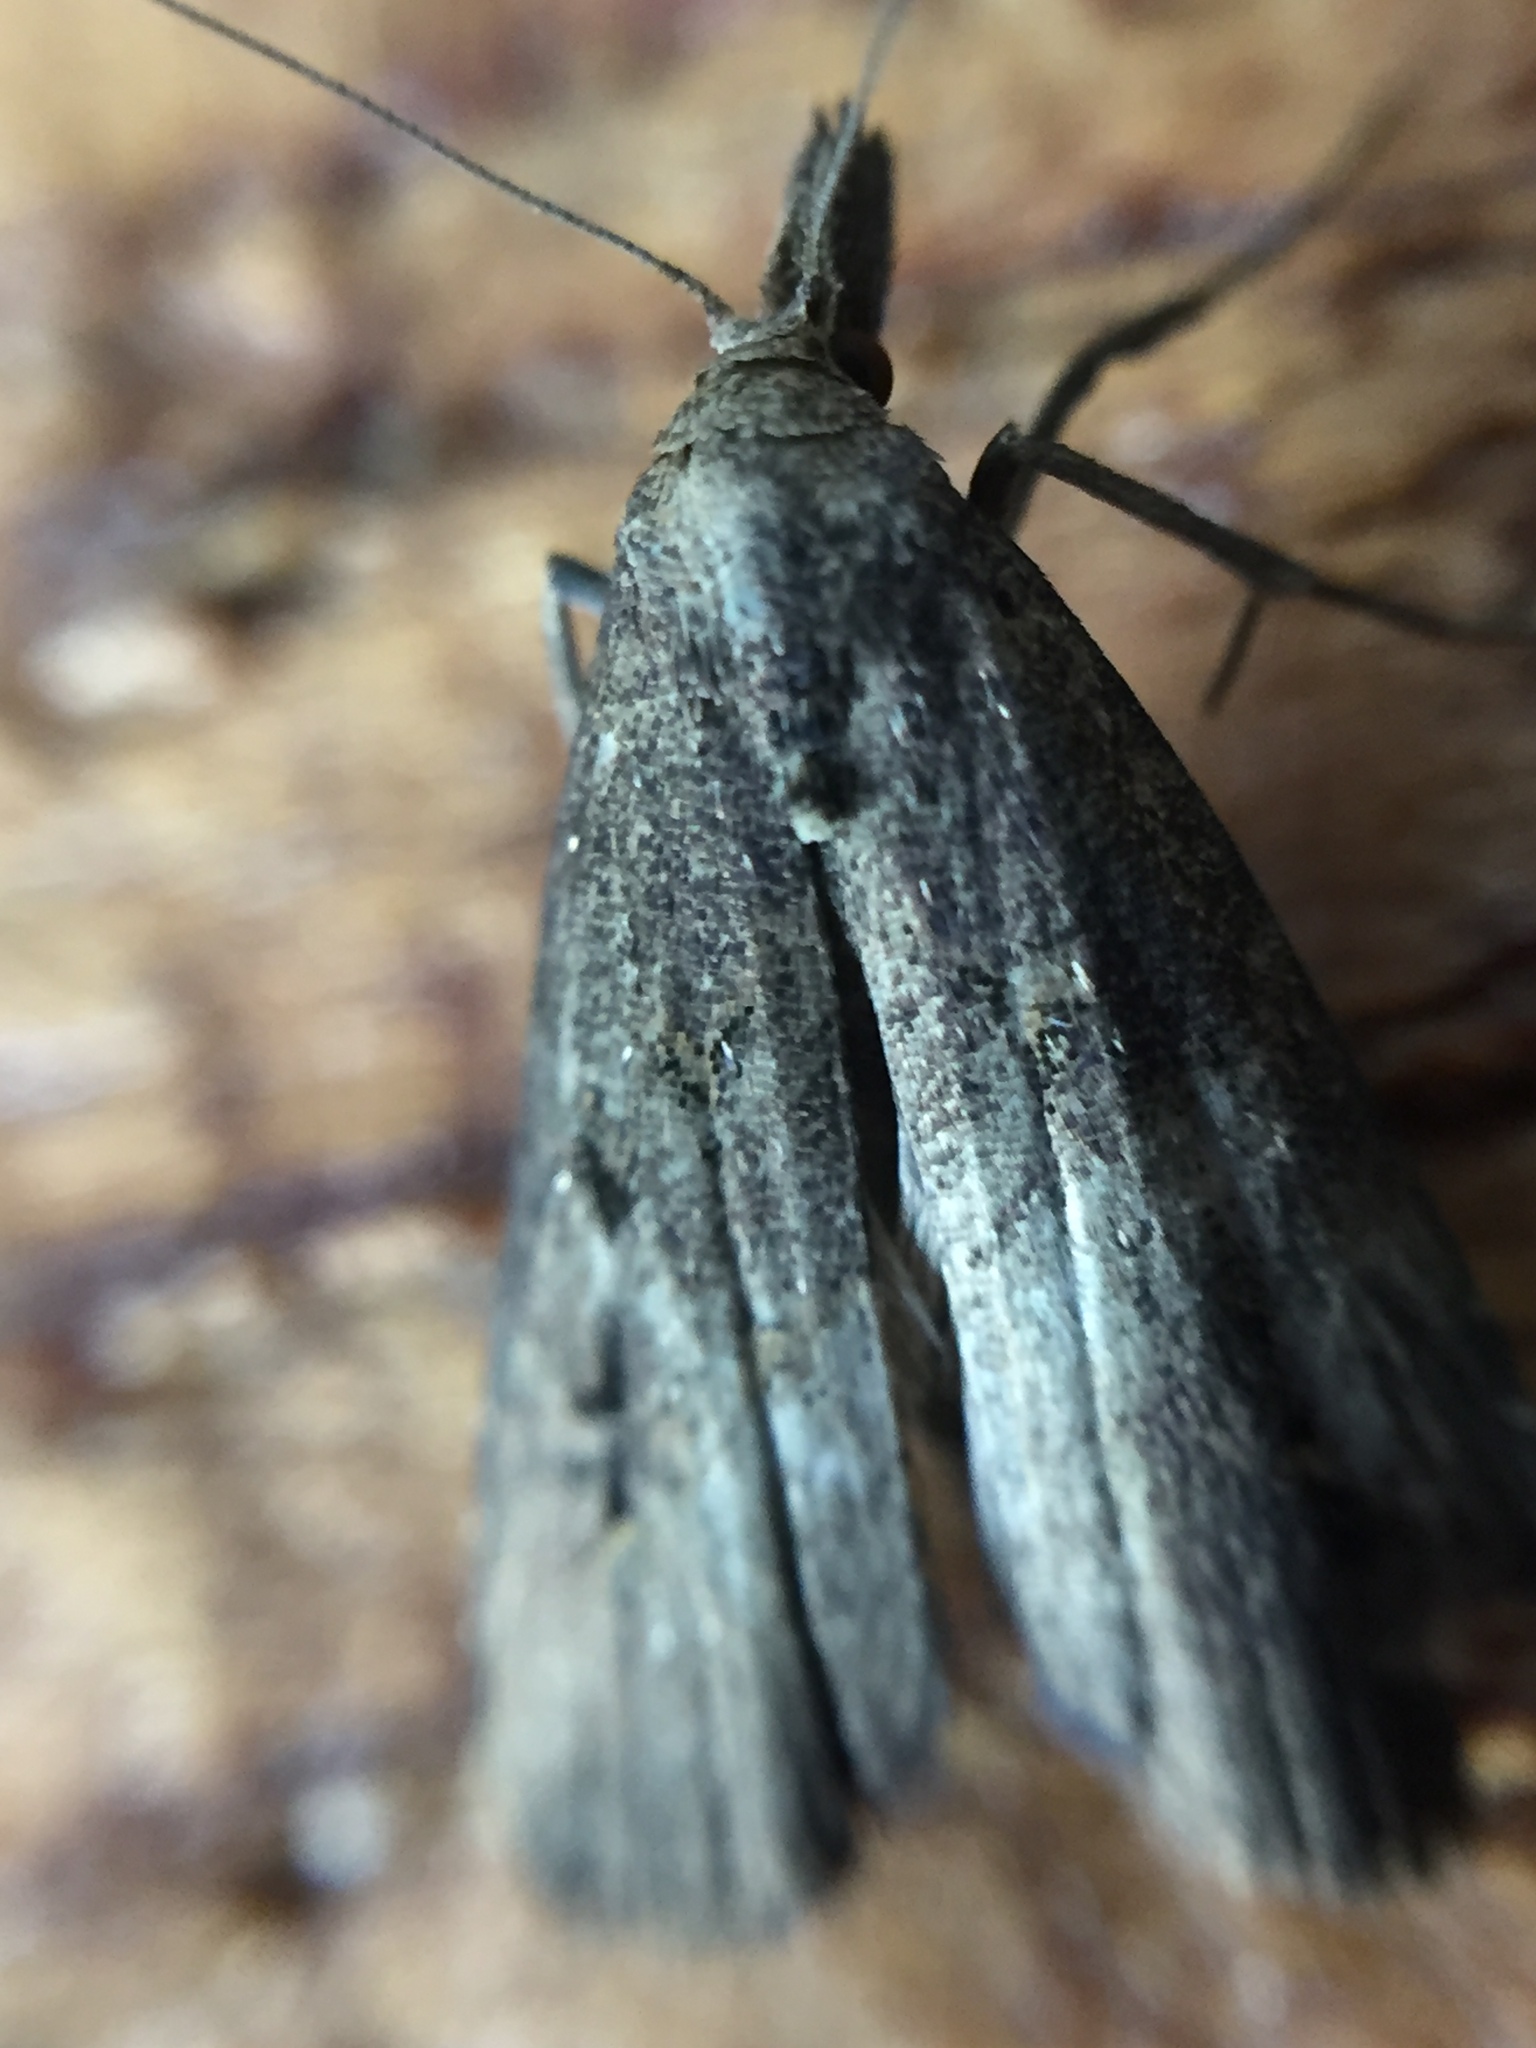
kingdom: Animalia
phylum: Arthropoda
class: Insecta
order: Lepidoptera
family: Erebidae
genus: Schrankia
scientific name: Schrankia costaestrigalis
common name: Pinion-streaked snout
